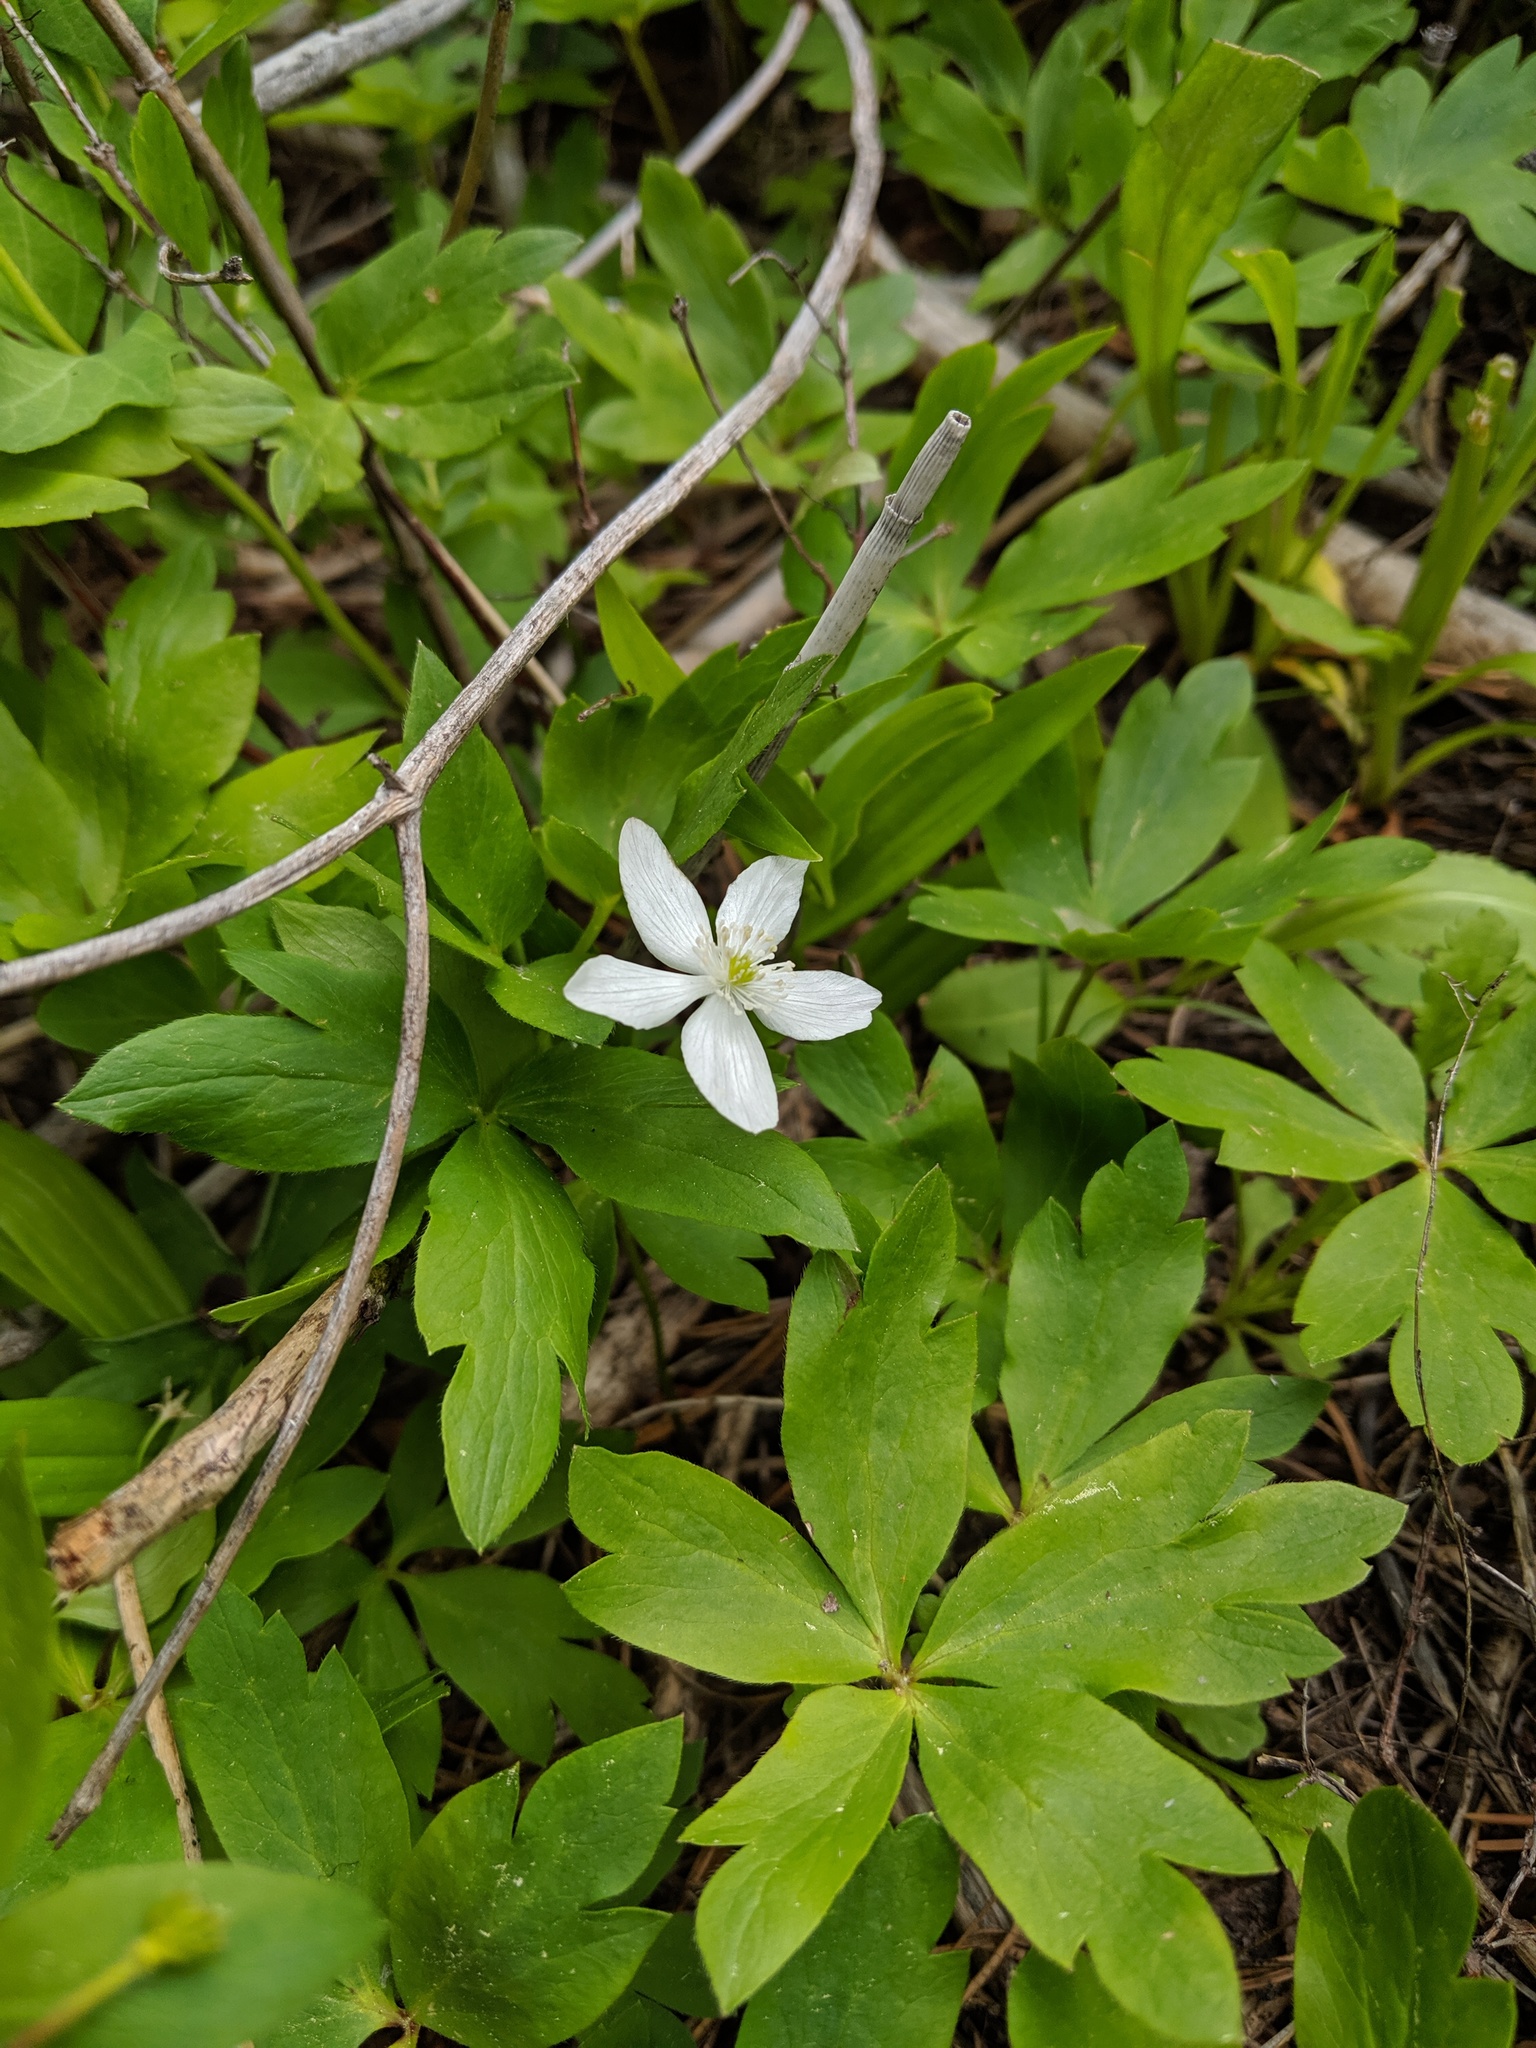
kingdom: Plantae
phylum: Tracheophyta
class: Magnoliopsida
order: Ranunculales
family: Ranunculaceae
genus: Anemone
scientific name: Anemone oregana
